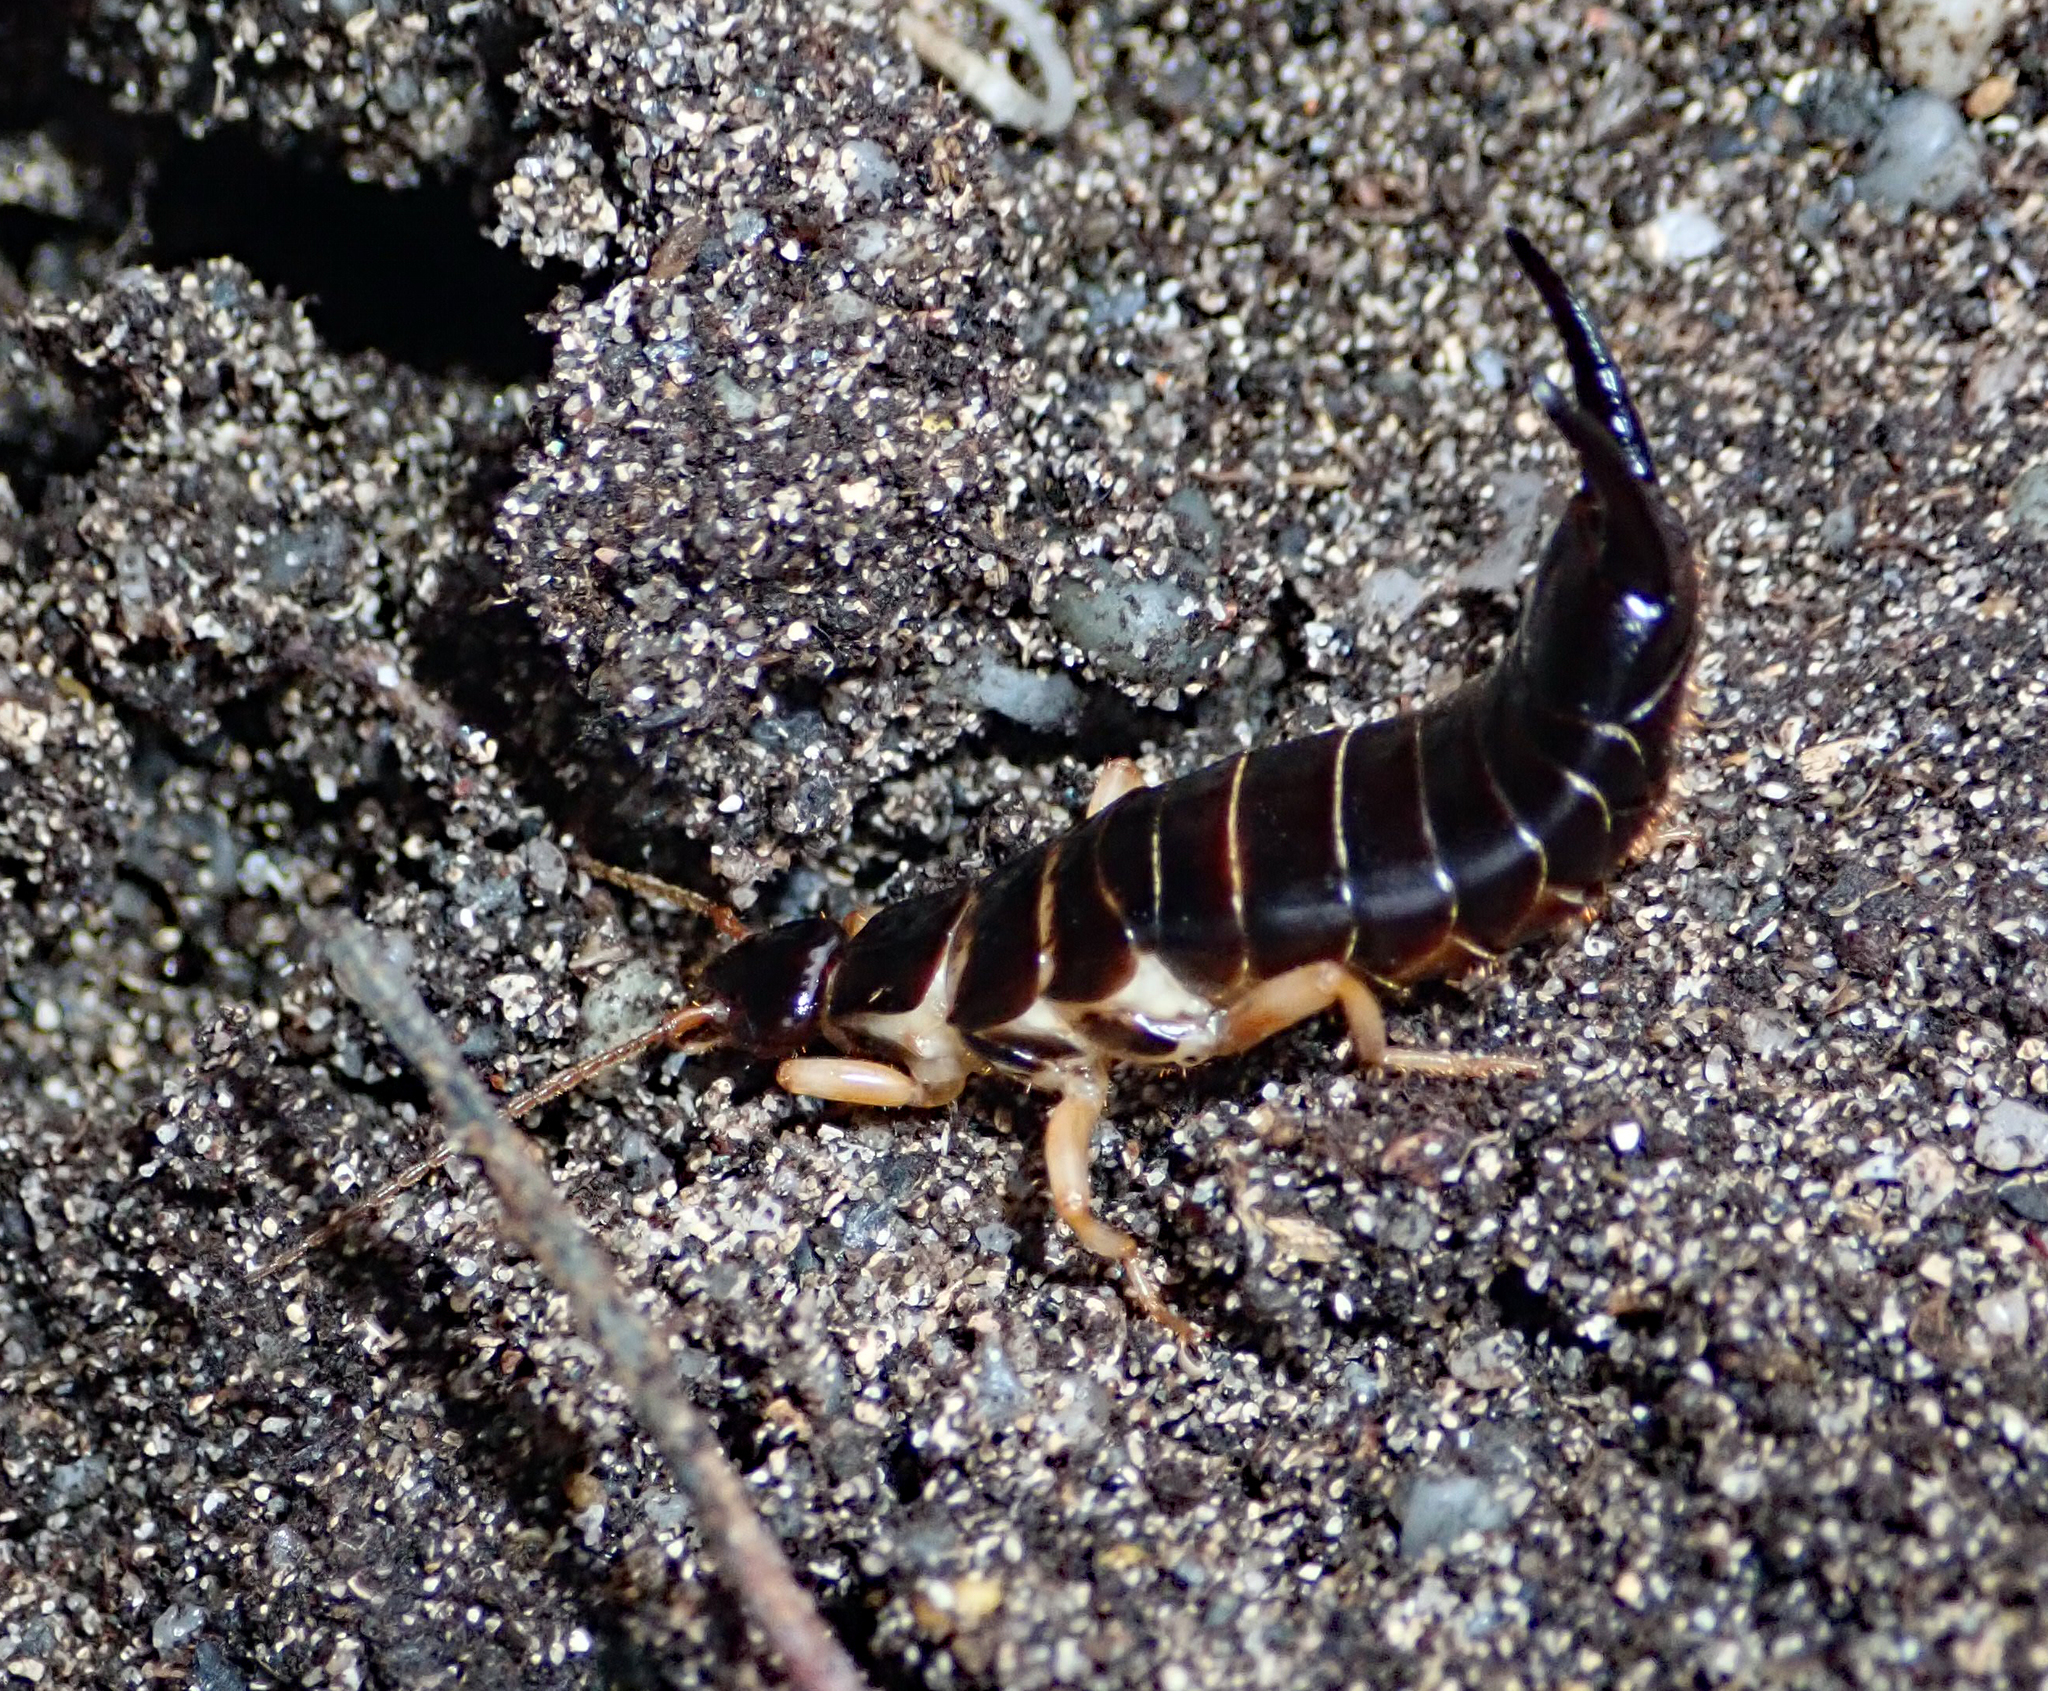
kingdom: Animalia
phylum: Arthropoda
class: Insecta
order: Dermaptera
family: Anisolabididae
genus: Anisolabis
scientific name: Anisolabis littorea
